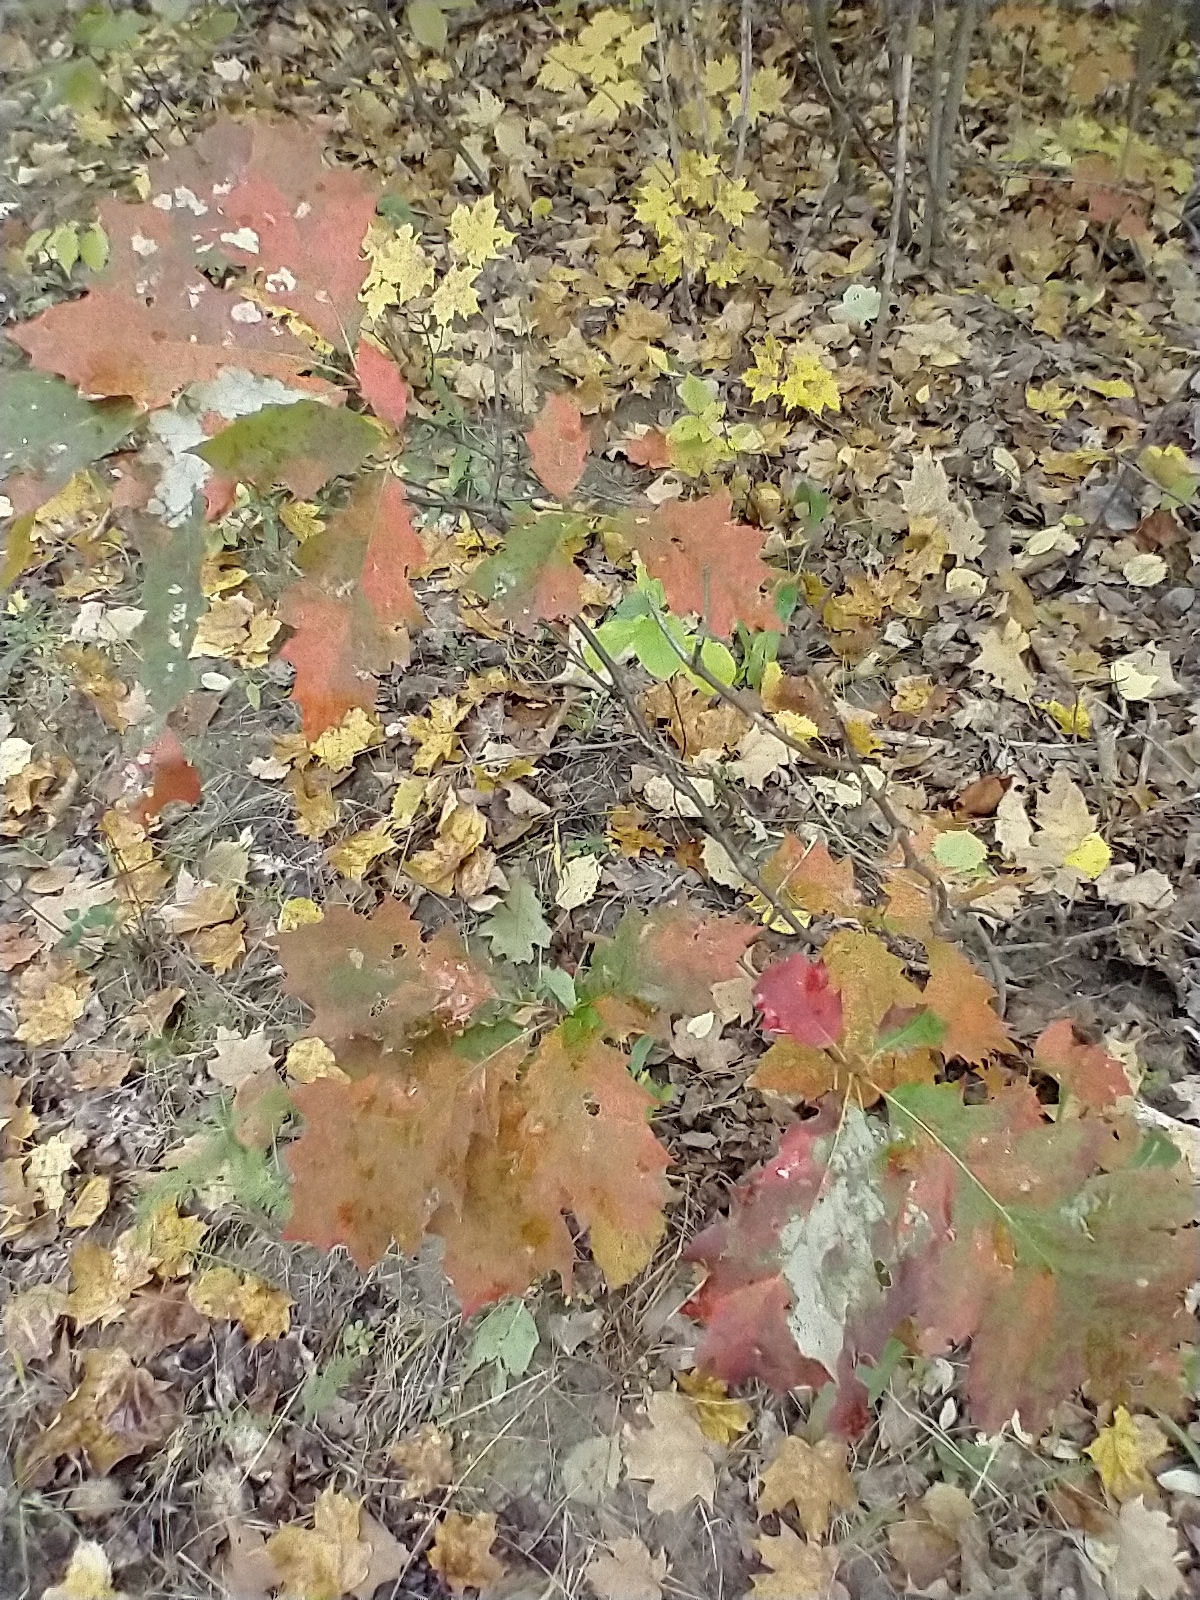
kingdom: Plantae
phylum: Tracheophyta
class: Magnoliopsida
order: Fagales
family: Fagaceae
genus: Quercus
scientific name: Quercus rubra
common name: Red oak
